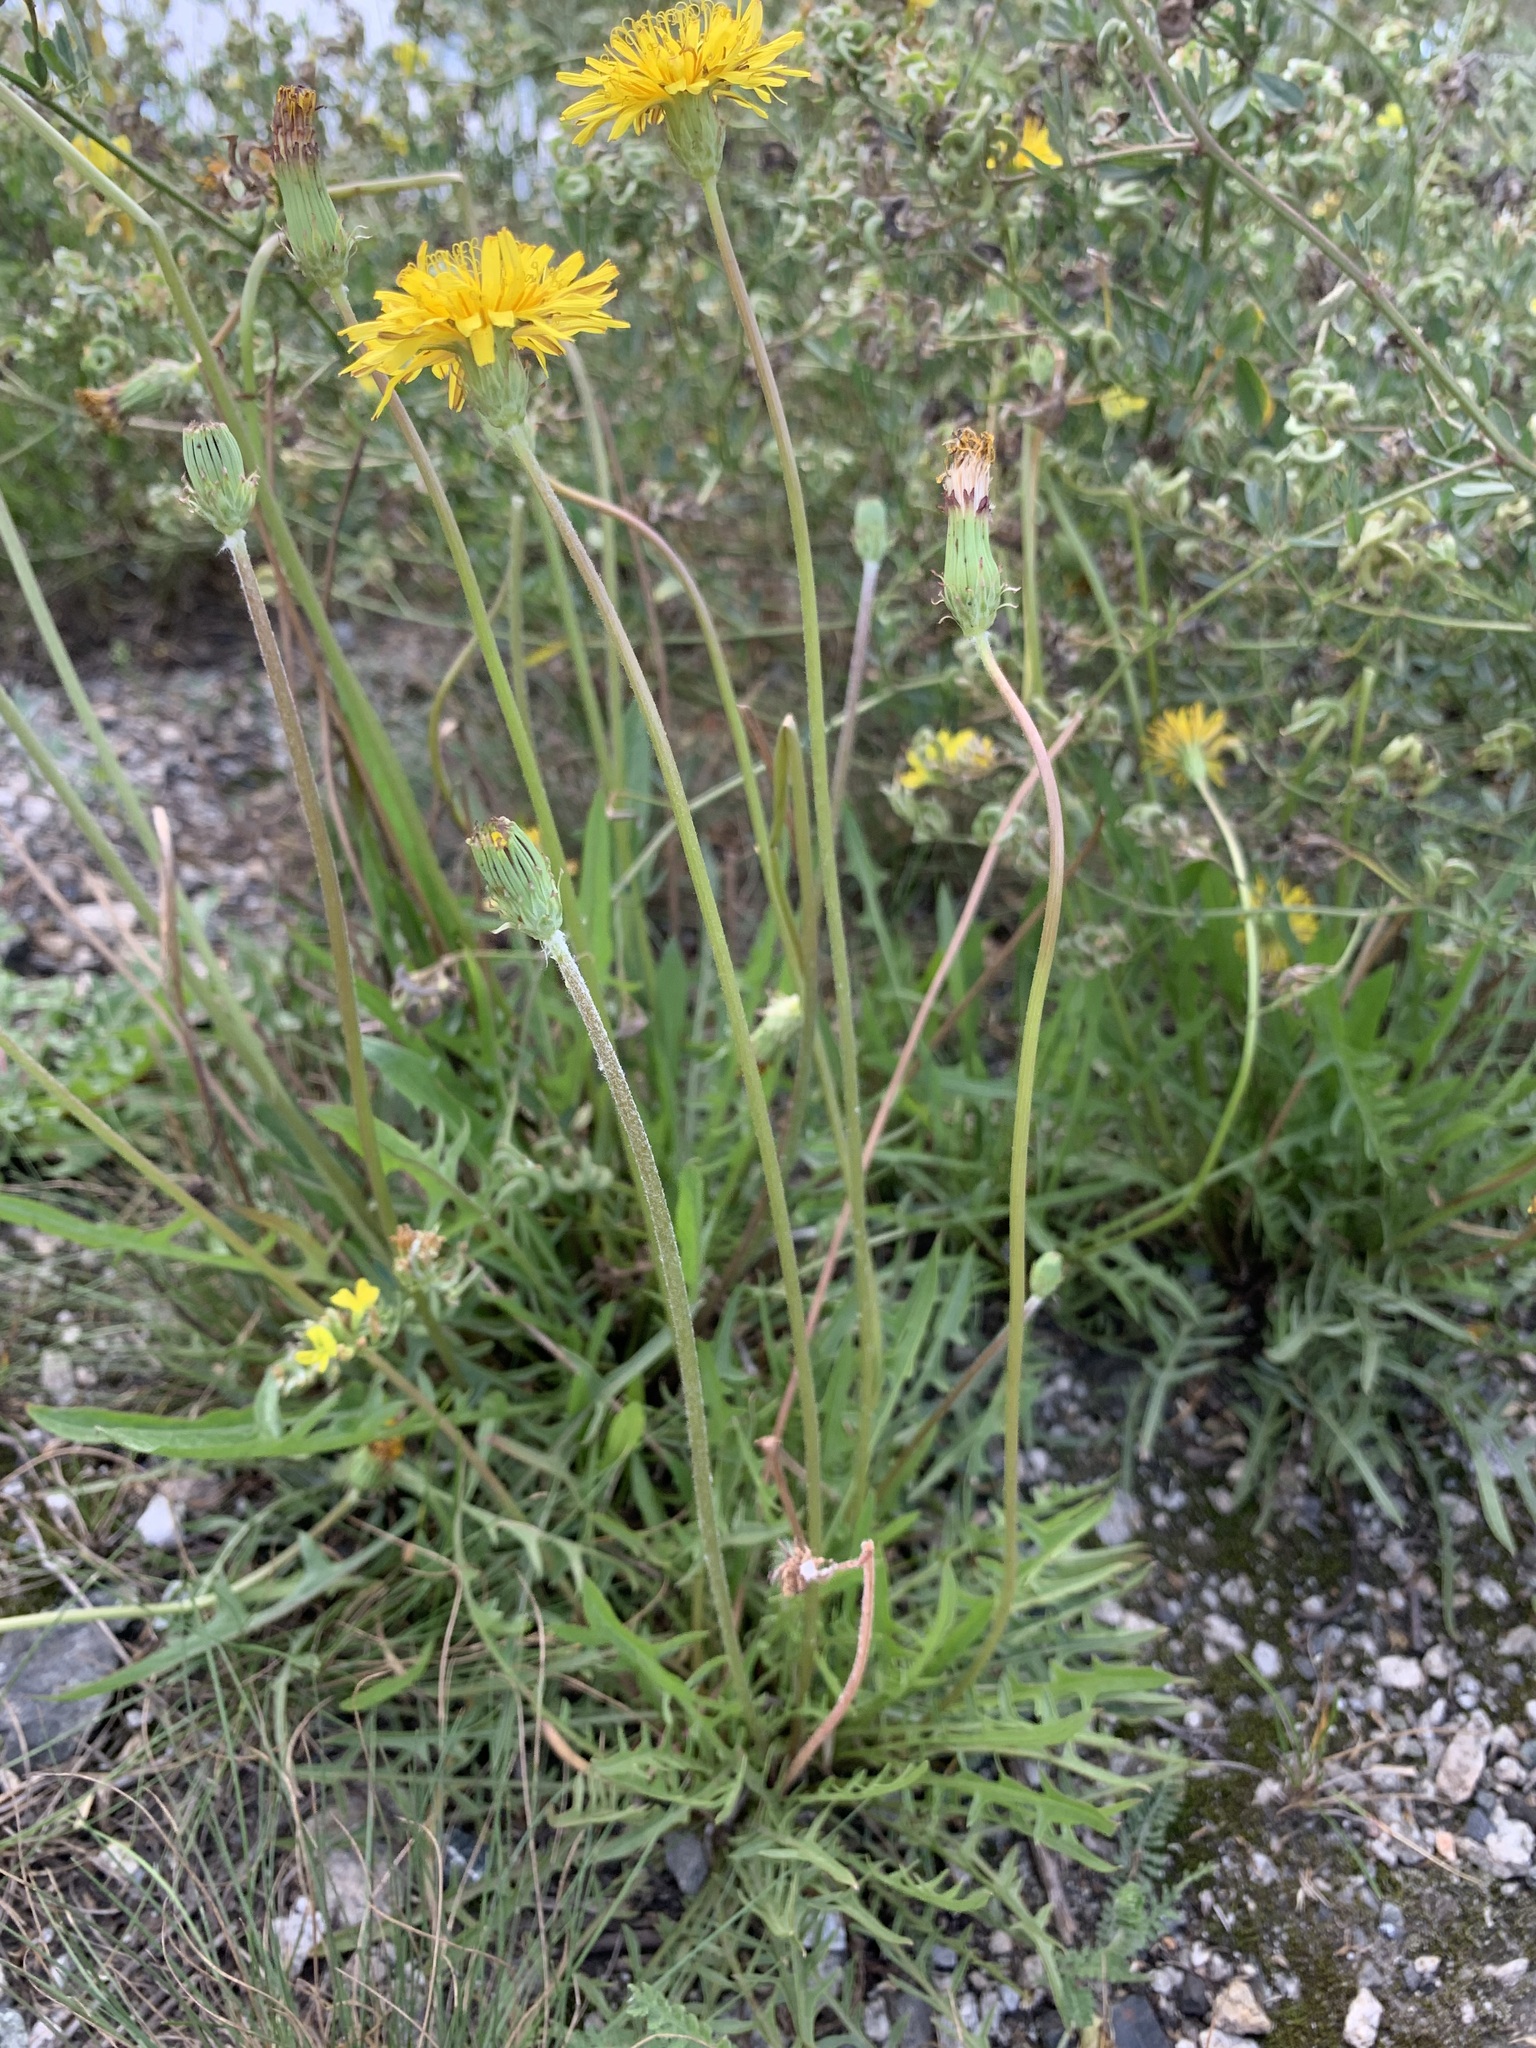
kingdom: Plantae
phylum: Tracheophyta
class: Magnoliopsida
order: Asterales
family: Asteraceae
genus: Taraxacum
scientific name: Taraxacum scariosum
